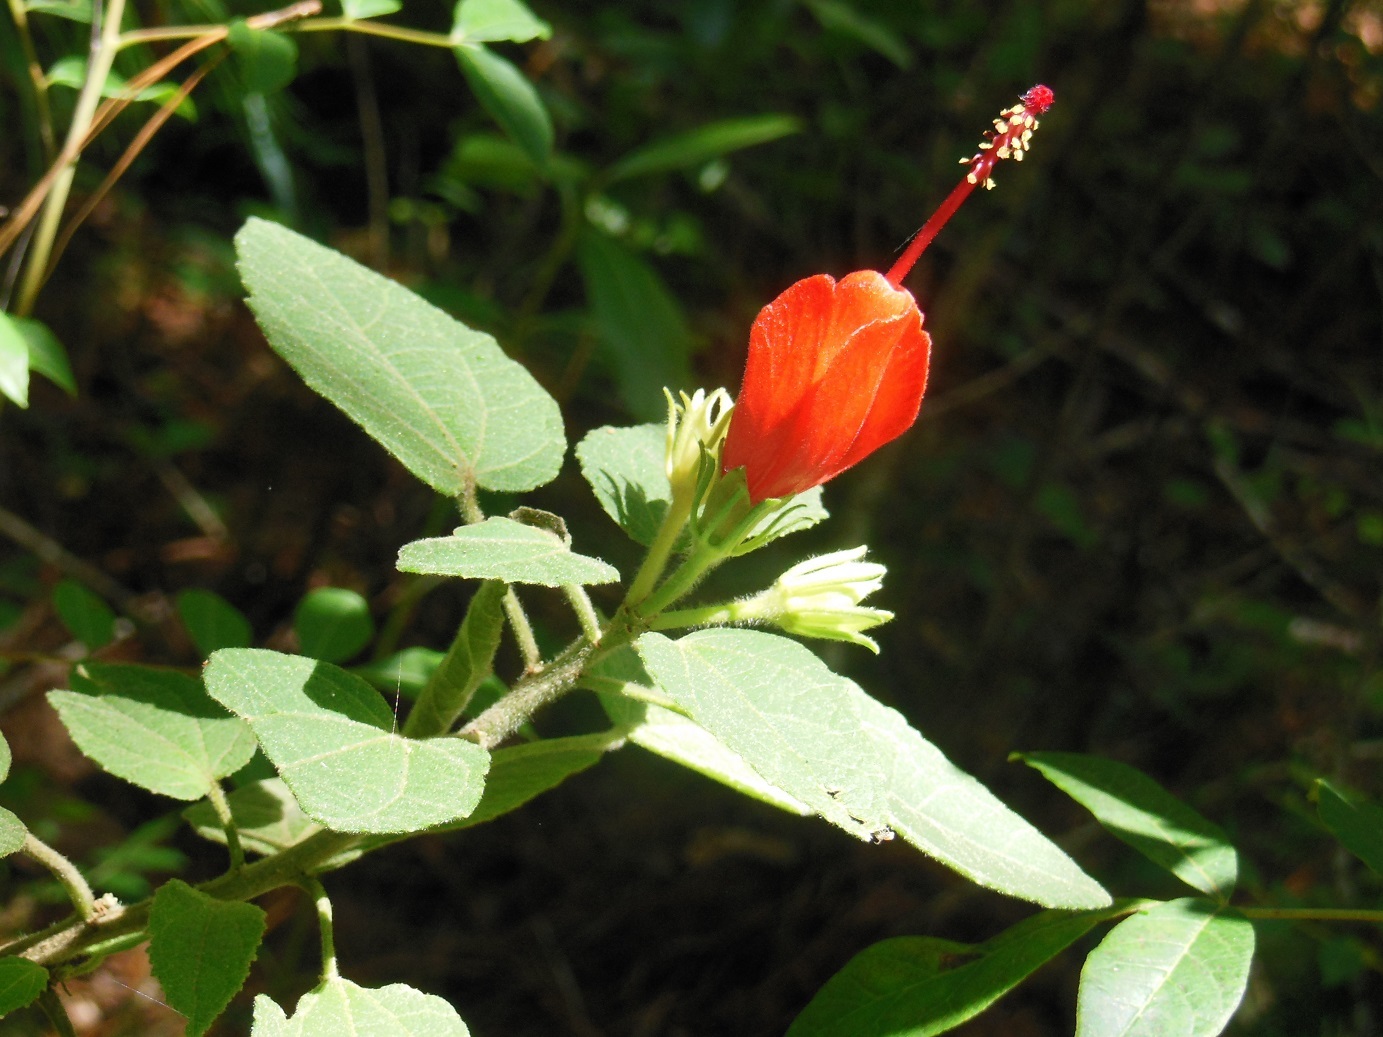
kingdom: Plantae
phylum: Tracheophyta
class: Magnoliopsida
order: Malvales
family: Malvaceae
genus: Malvaviscus
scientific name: Malvaviscus arboreus
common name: Wax mallow
